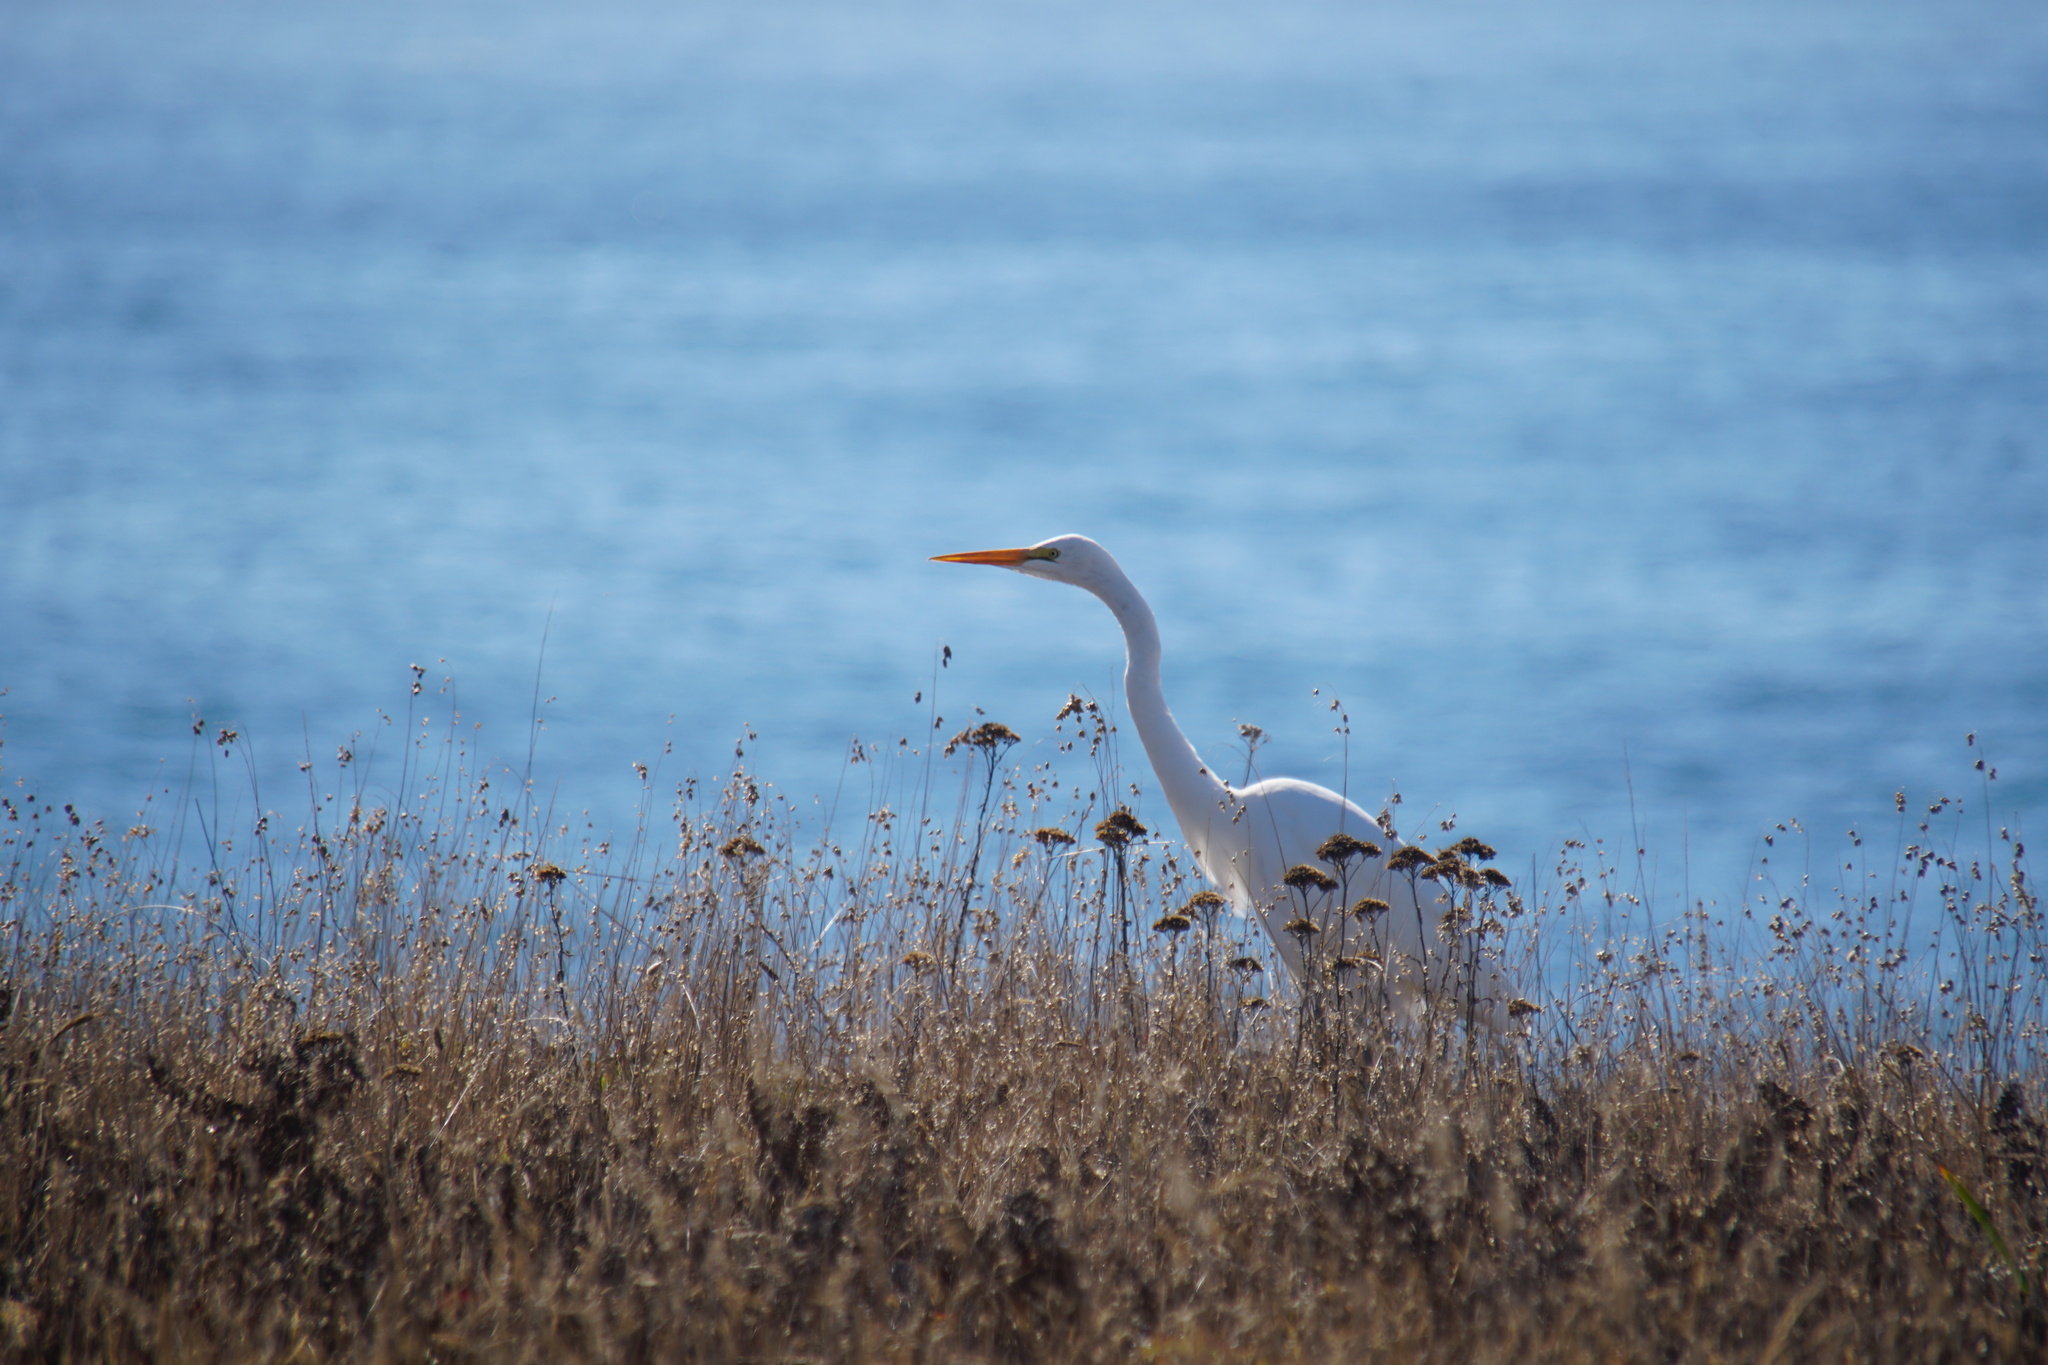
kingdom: Animalia
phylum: Chordata
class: Aves
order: Pelecaniformes
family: Ardeidae
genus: Ardea
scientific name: Ardea alba
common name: Great egret
